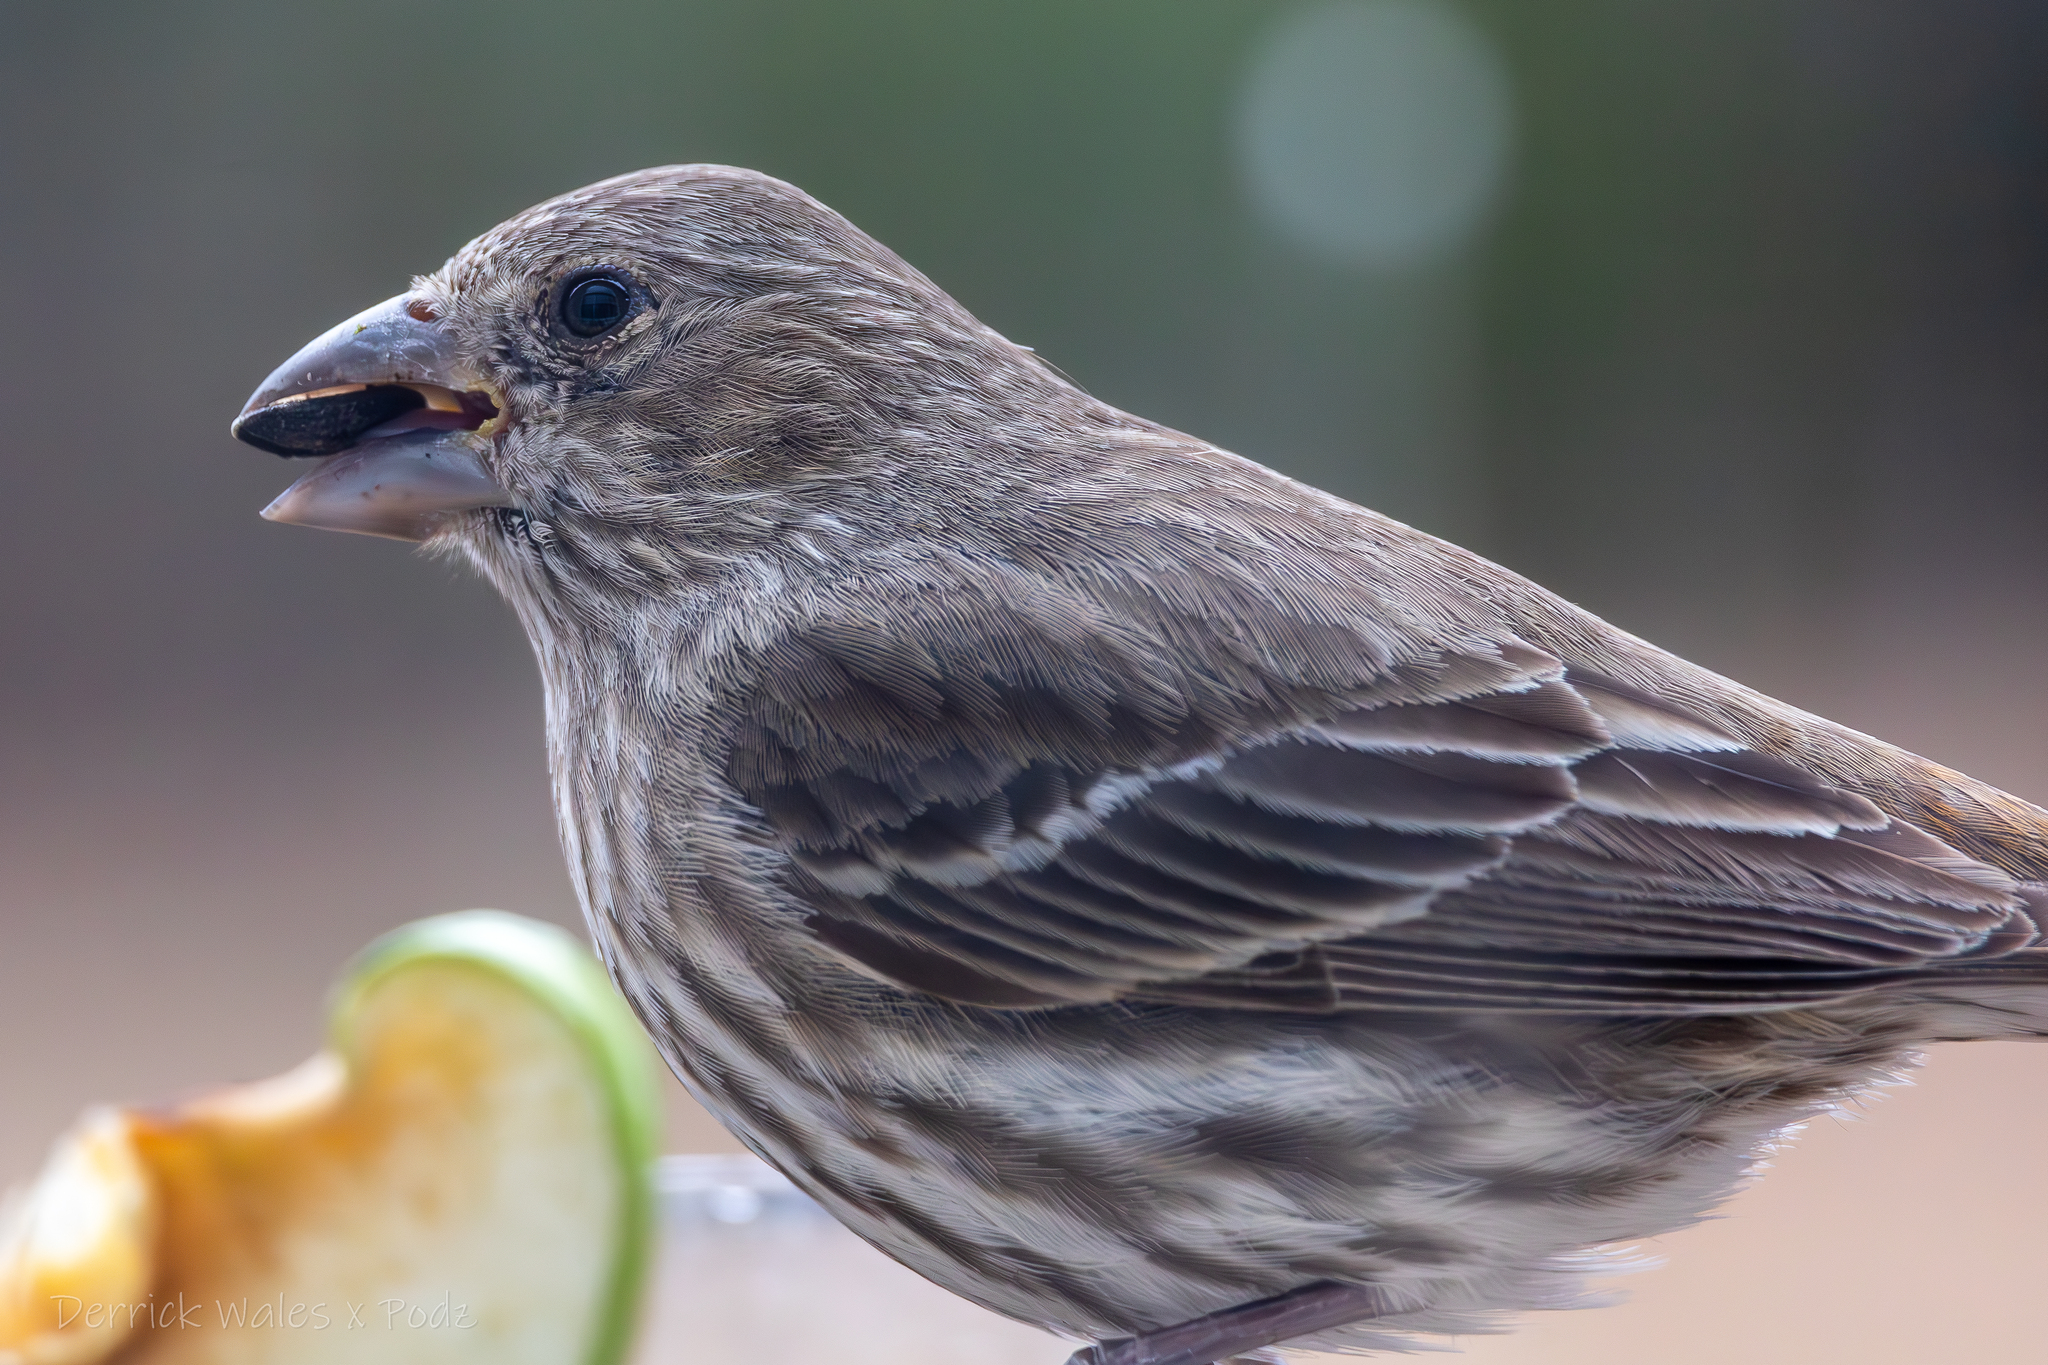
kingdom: Animalia
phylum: Chordata
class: Aves
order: Passeriformes
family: Fringillidae
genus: Haemorhous
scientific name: Haemorhous mexicanus
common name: House finch
